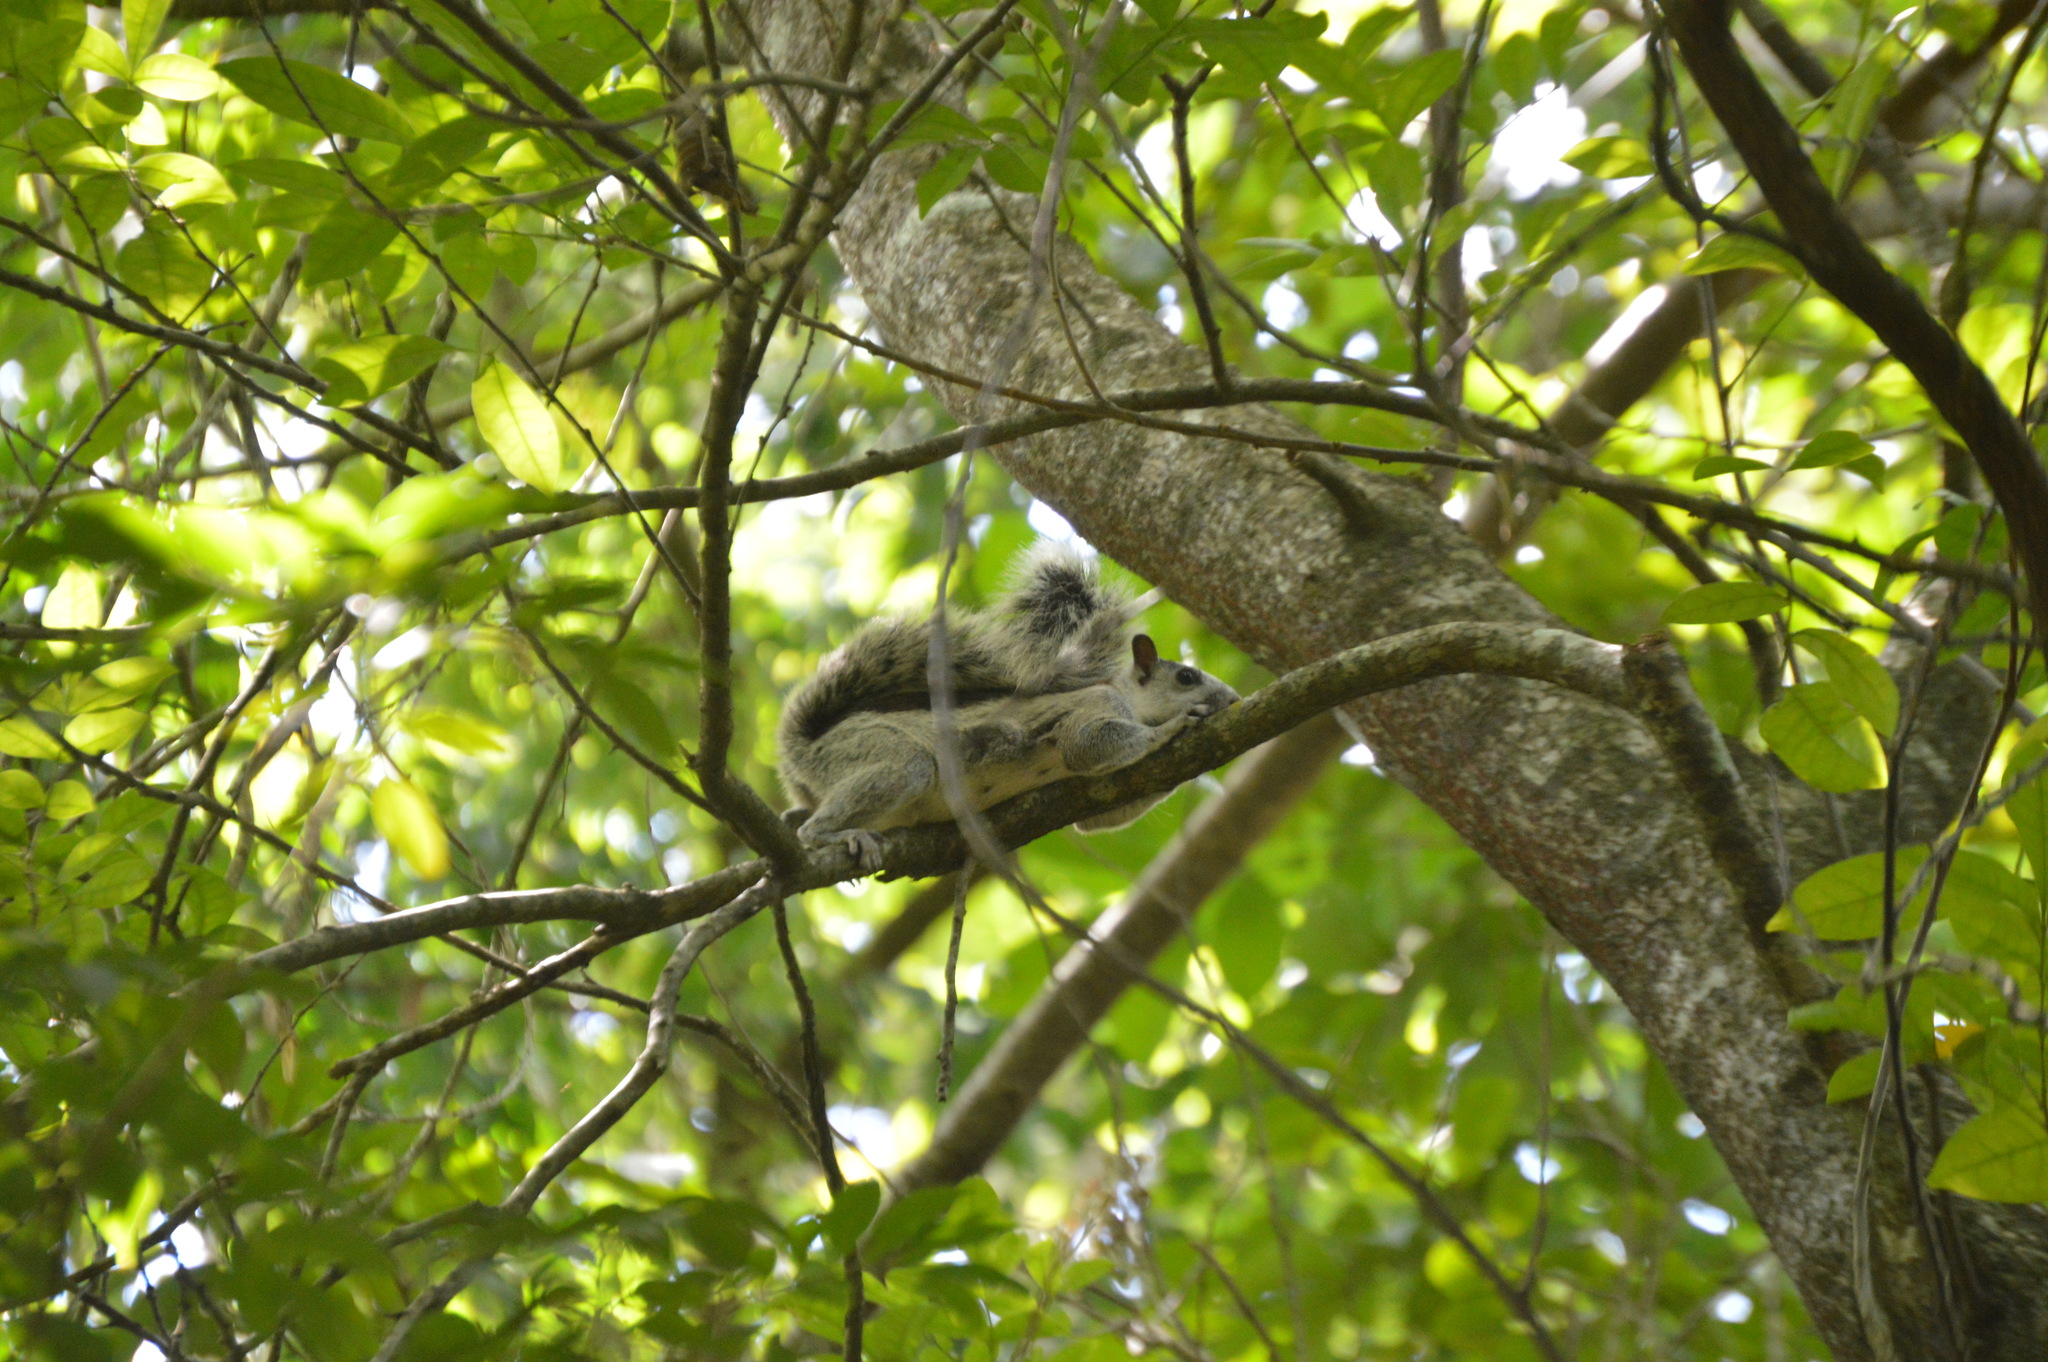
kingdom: Animalia
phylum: Chordata
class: Mammalia
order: Rodentia
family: Sciuridae
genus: Sciurus
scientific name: Sciurus variegatoides
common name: Variegated squirrel
